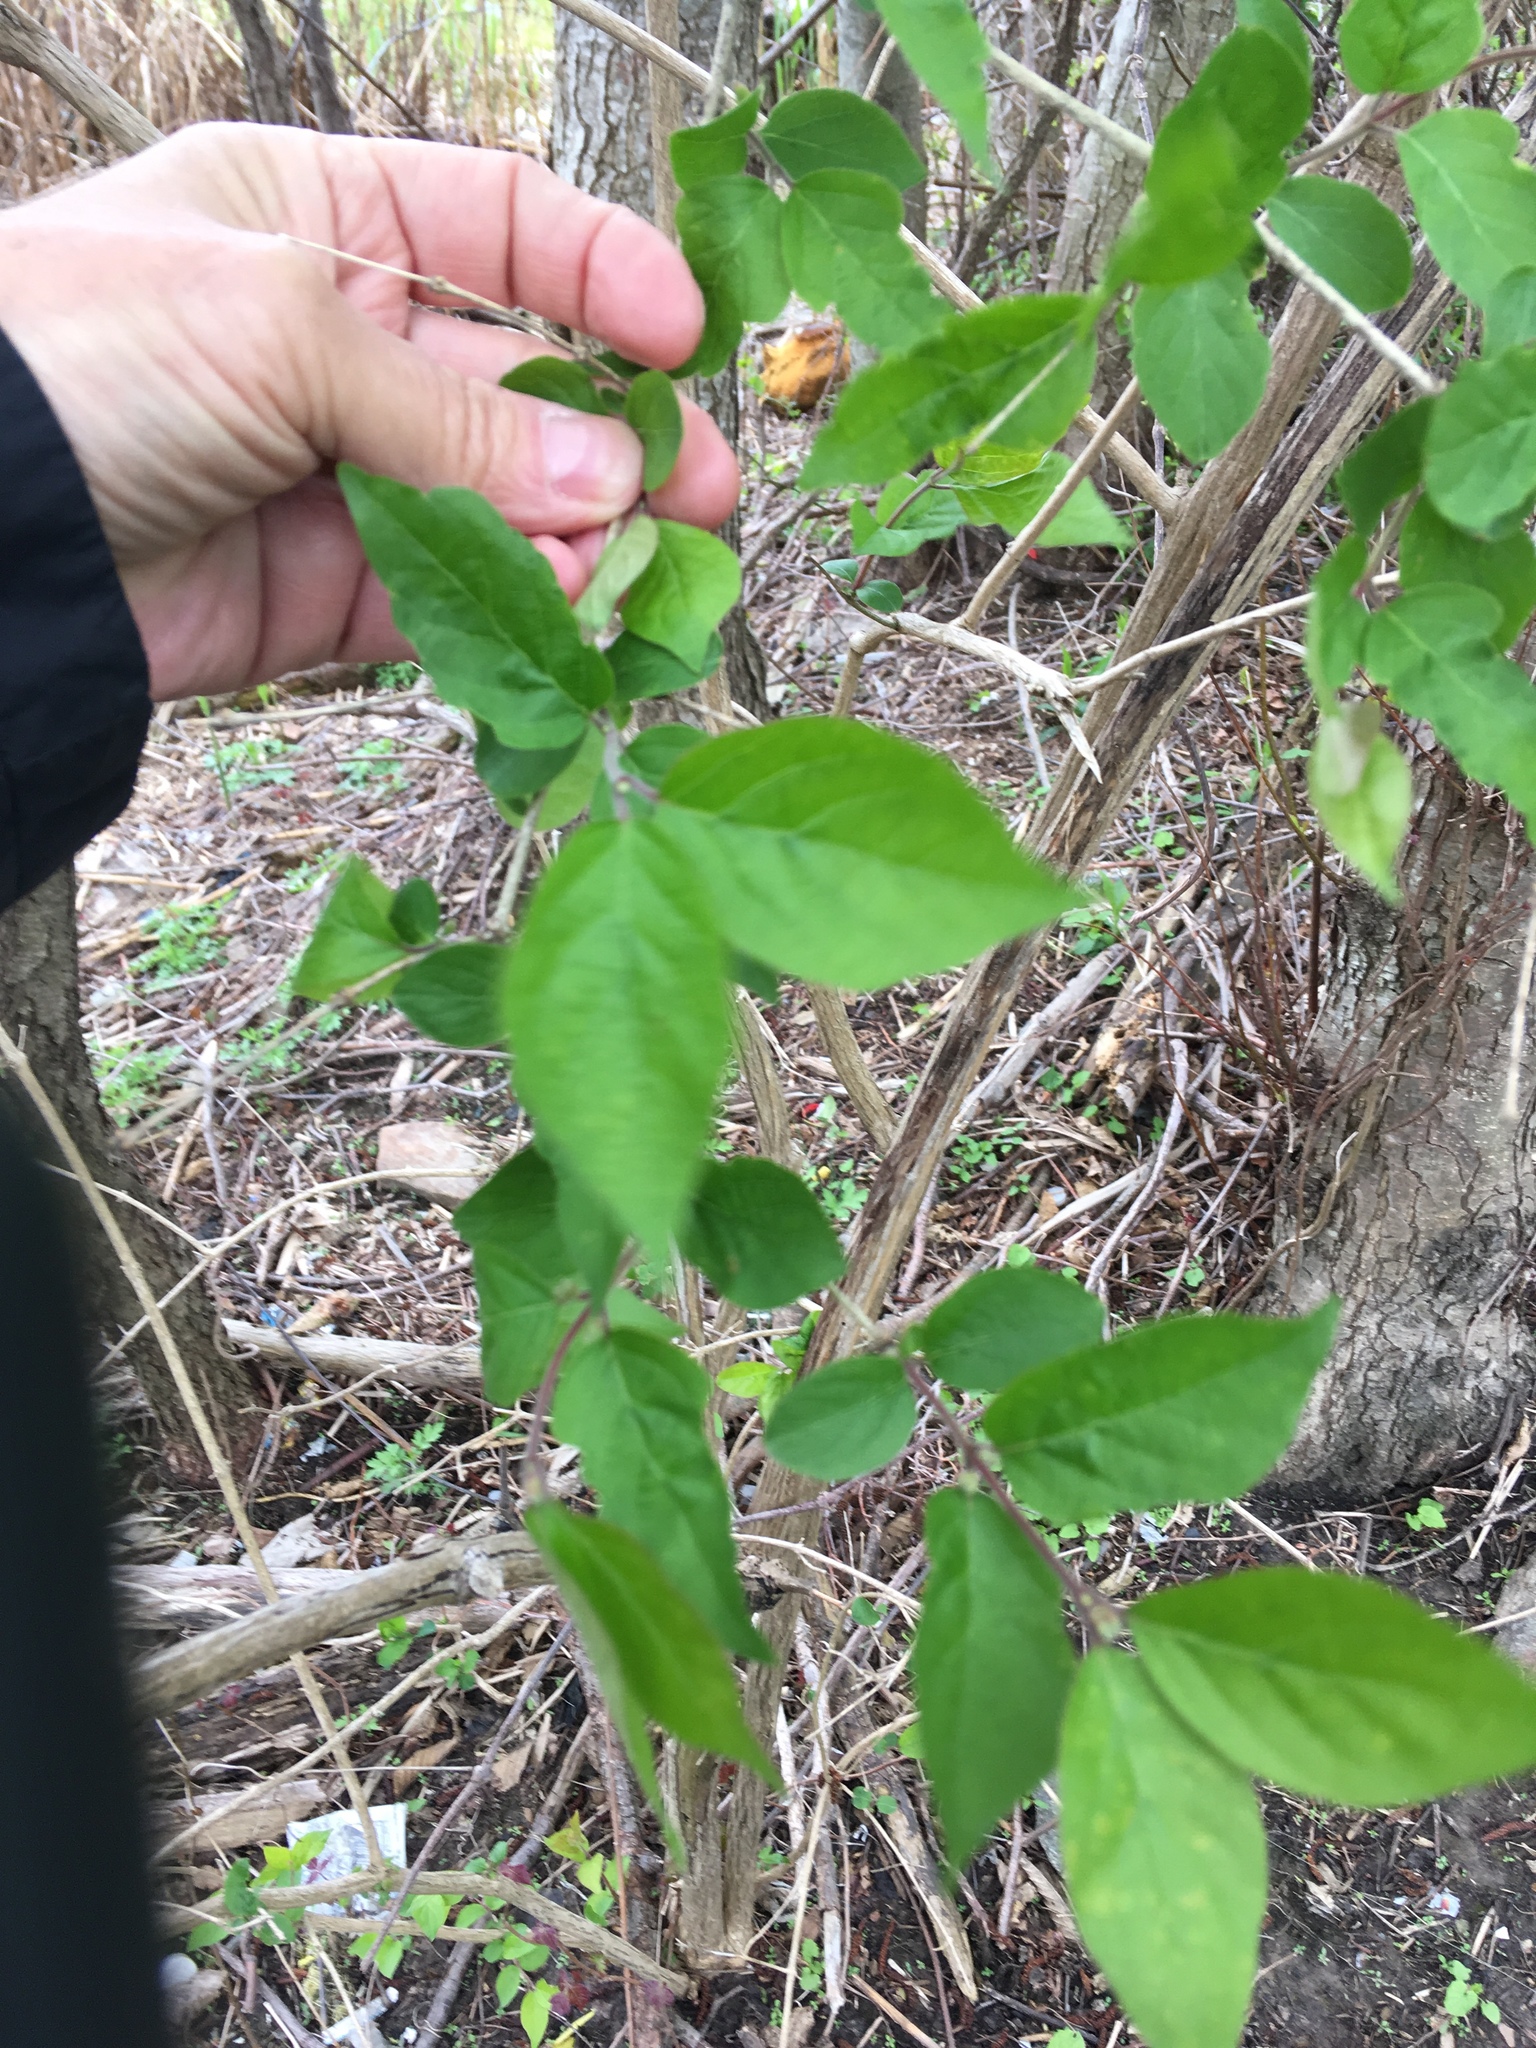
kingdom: Plantae
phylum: Tracheophyta
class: Magnoliopsida
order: Dipsacales
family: Caprifoliaceae
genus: Lonicera
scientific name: Lonicera maackii
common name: Amur honeysuckle
